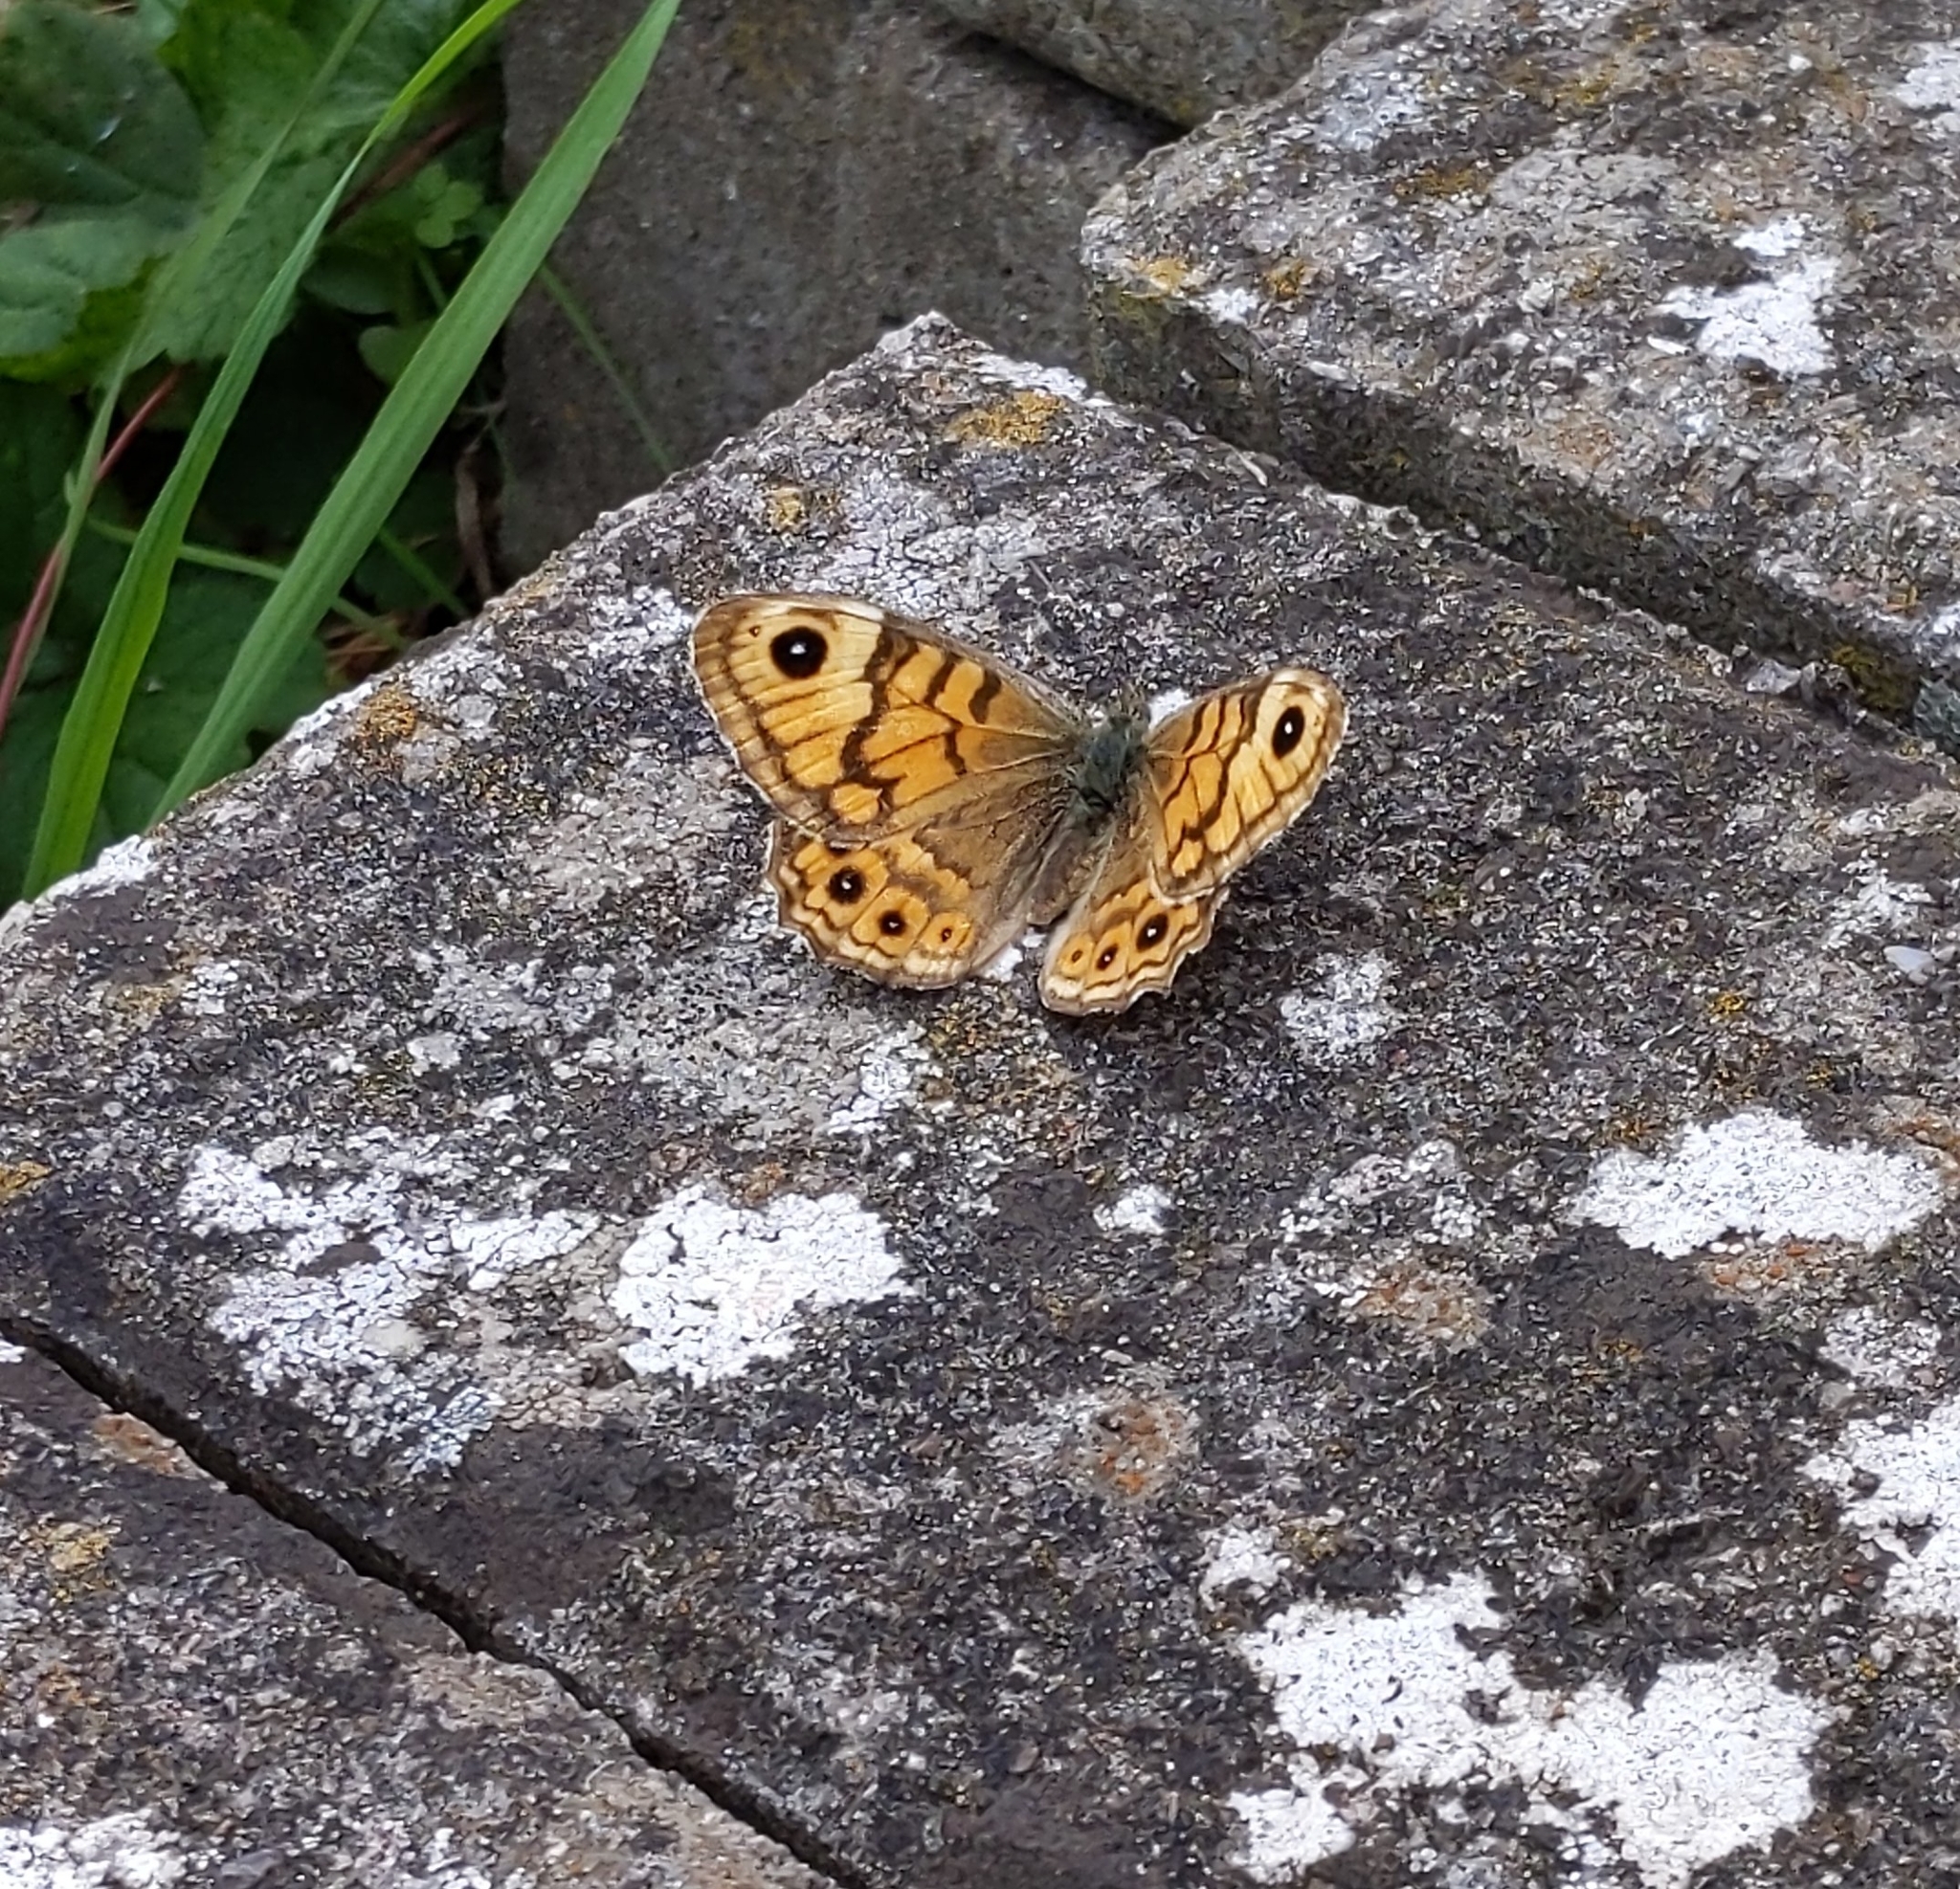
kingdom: Animalia
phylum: Arthropoda
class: Insecta
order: Lepidoptera
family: Nymphalidae
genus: Pararge
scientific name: Pararge Lasiommata megera
